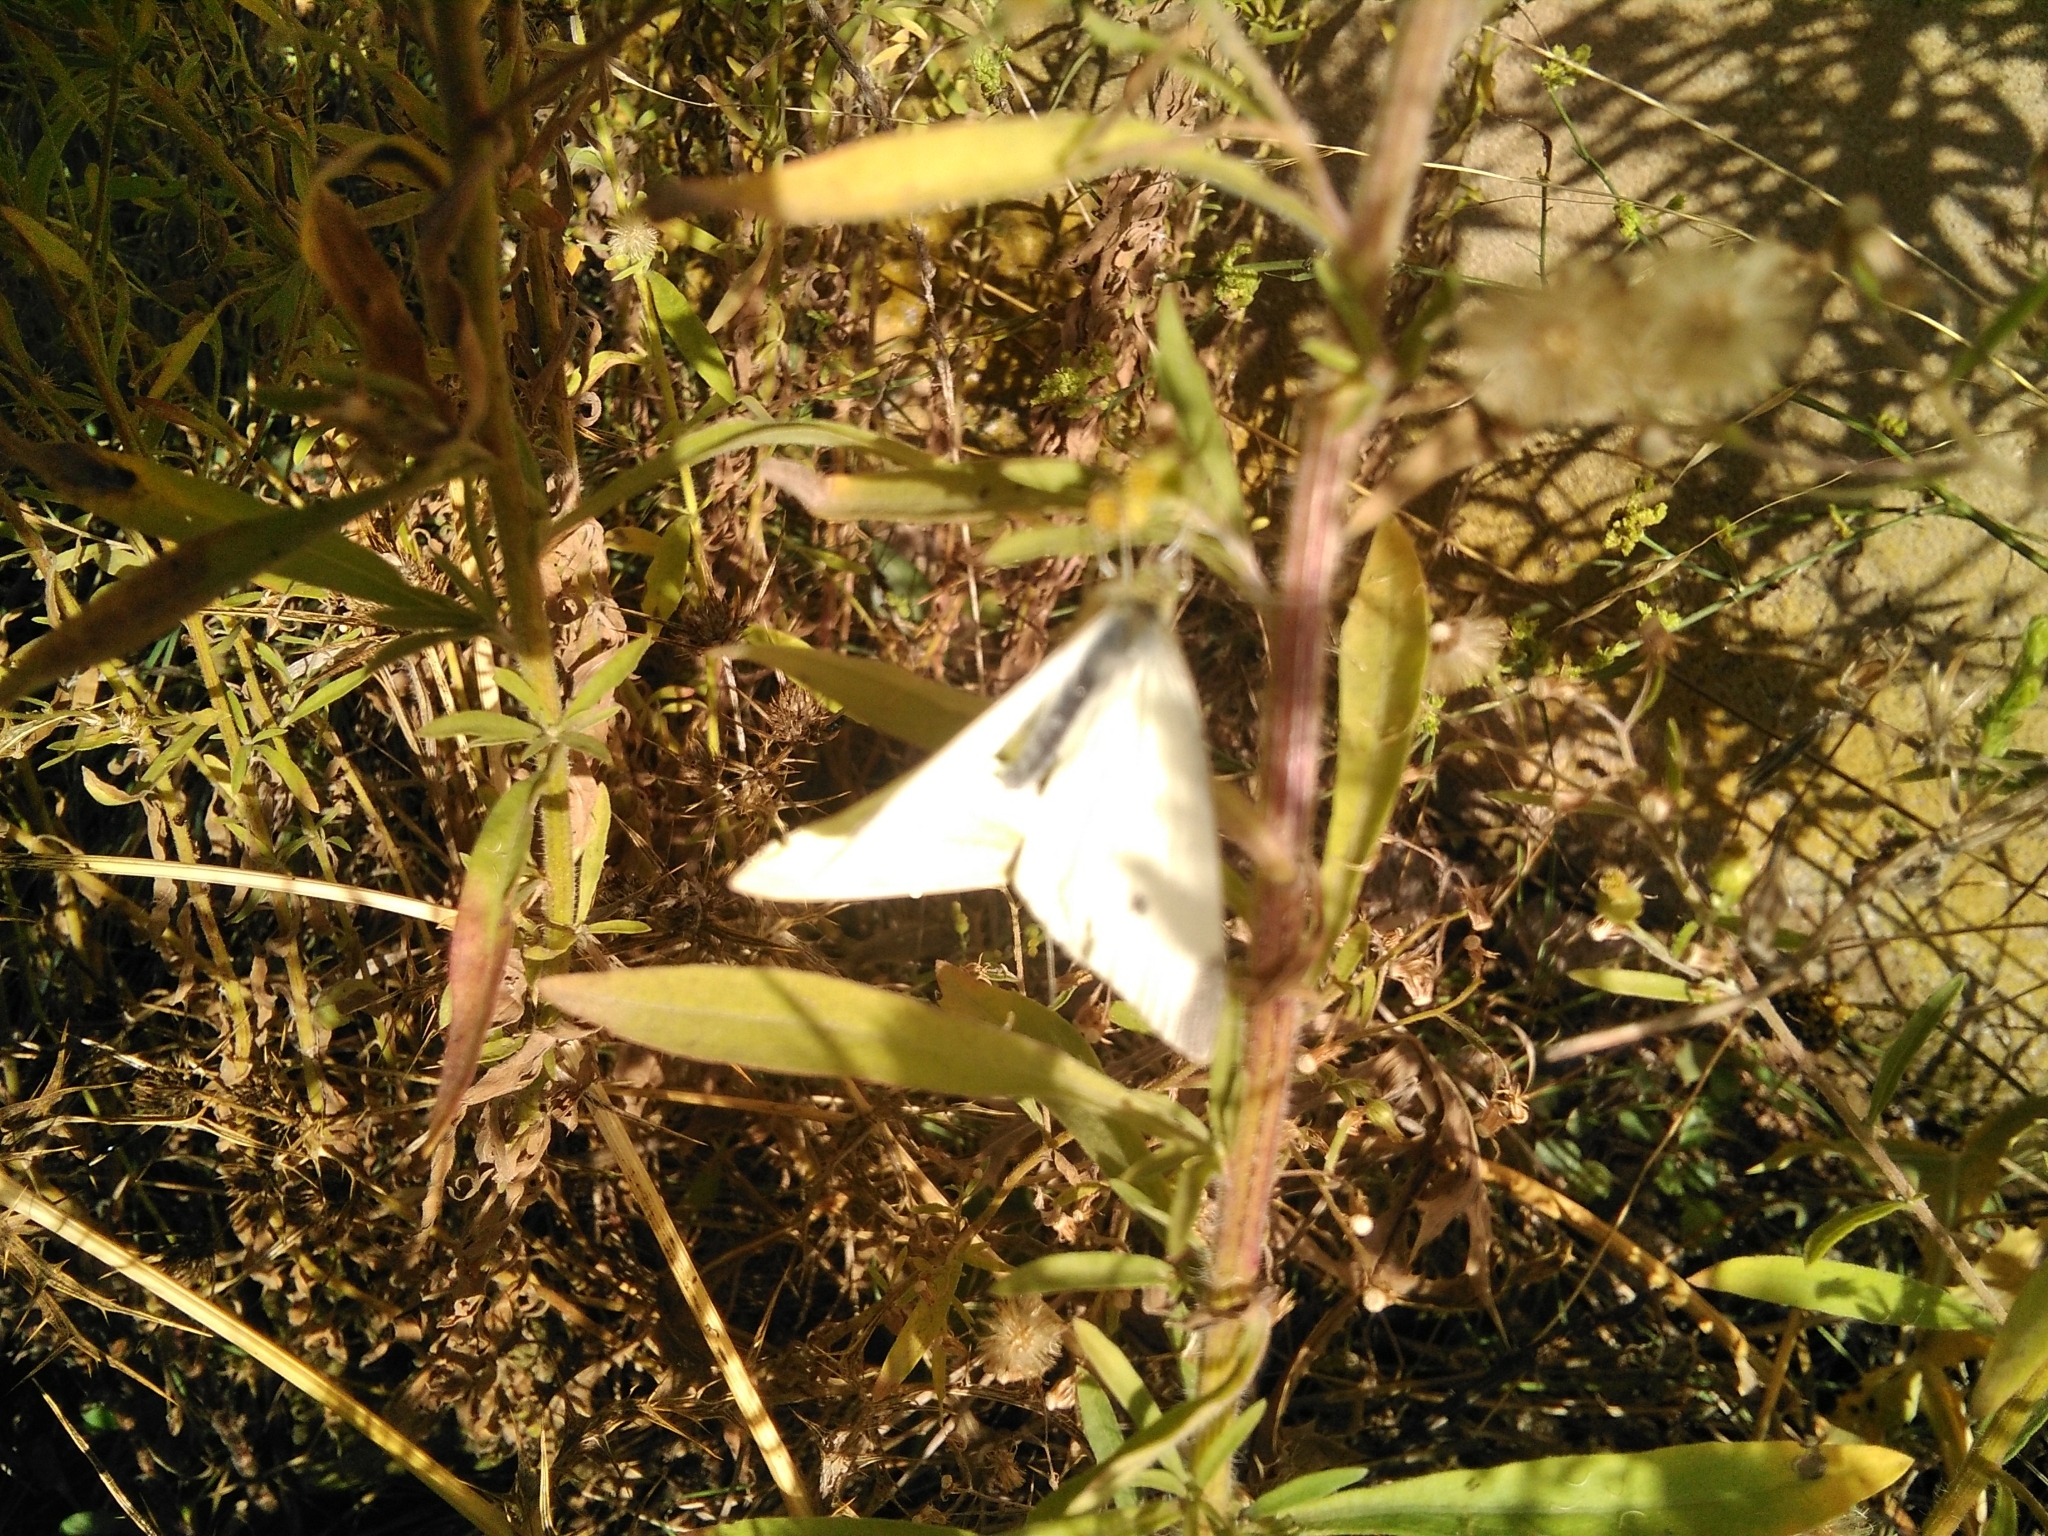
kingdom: Animalia
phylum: Arthropoda
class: Insecta
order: Lepidoptera
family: Pieridae
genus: Pieris
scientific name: Pieris rapae
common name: Small white
